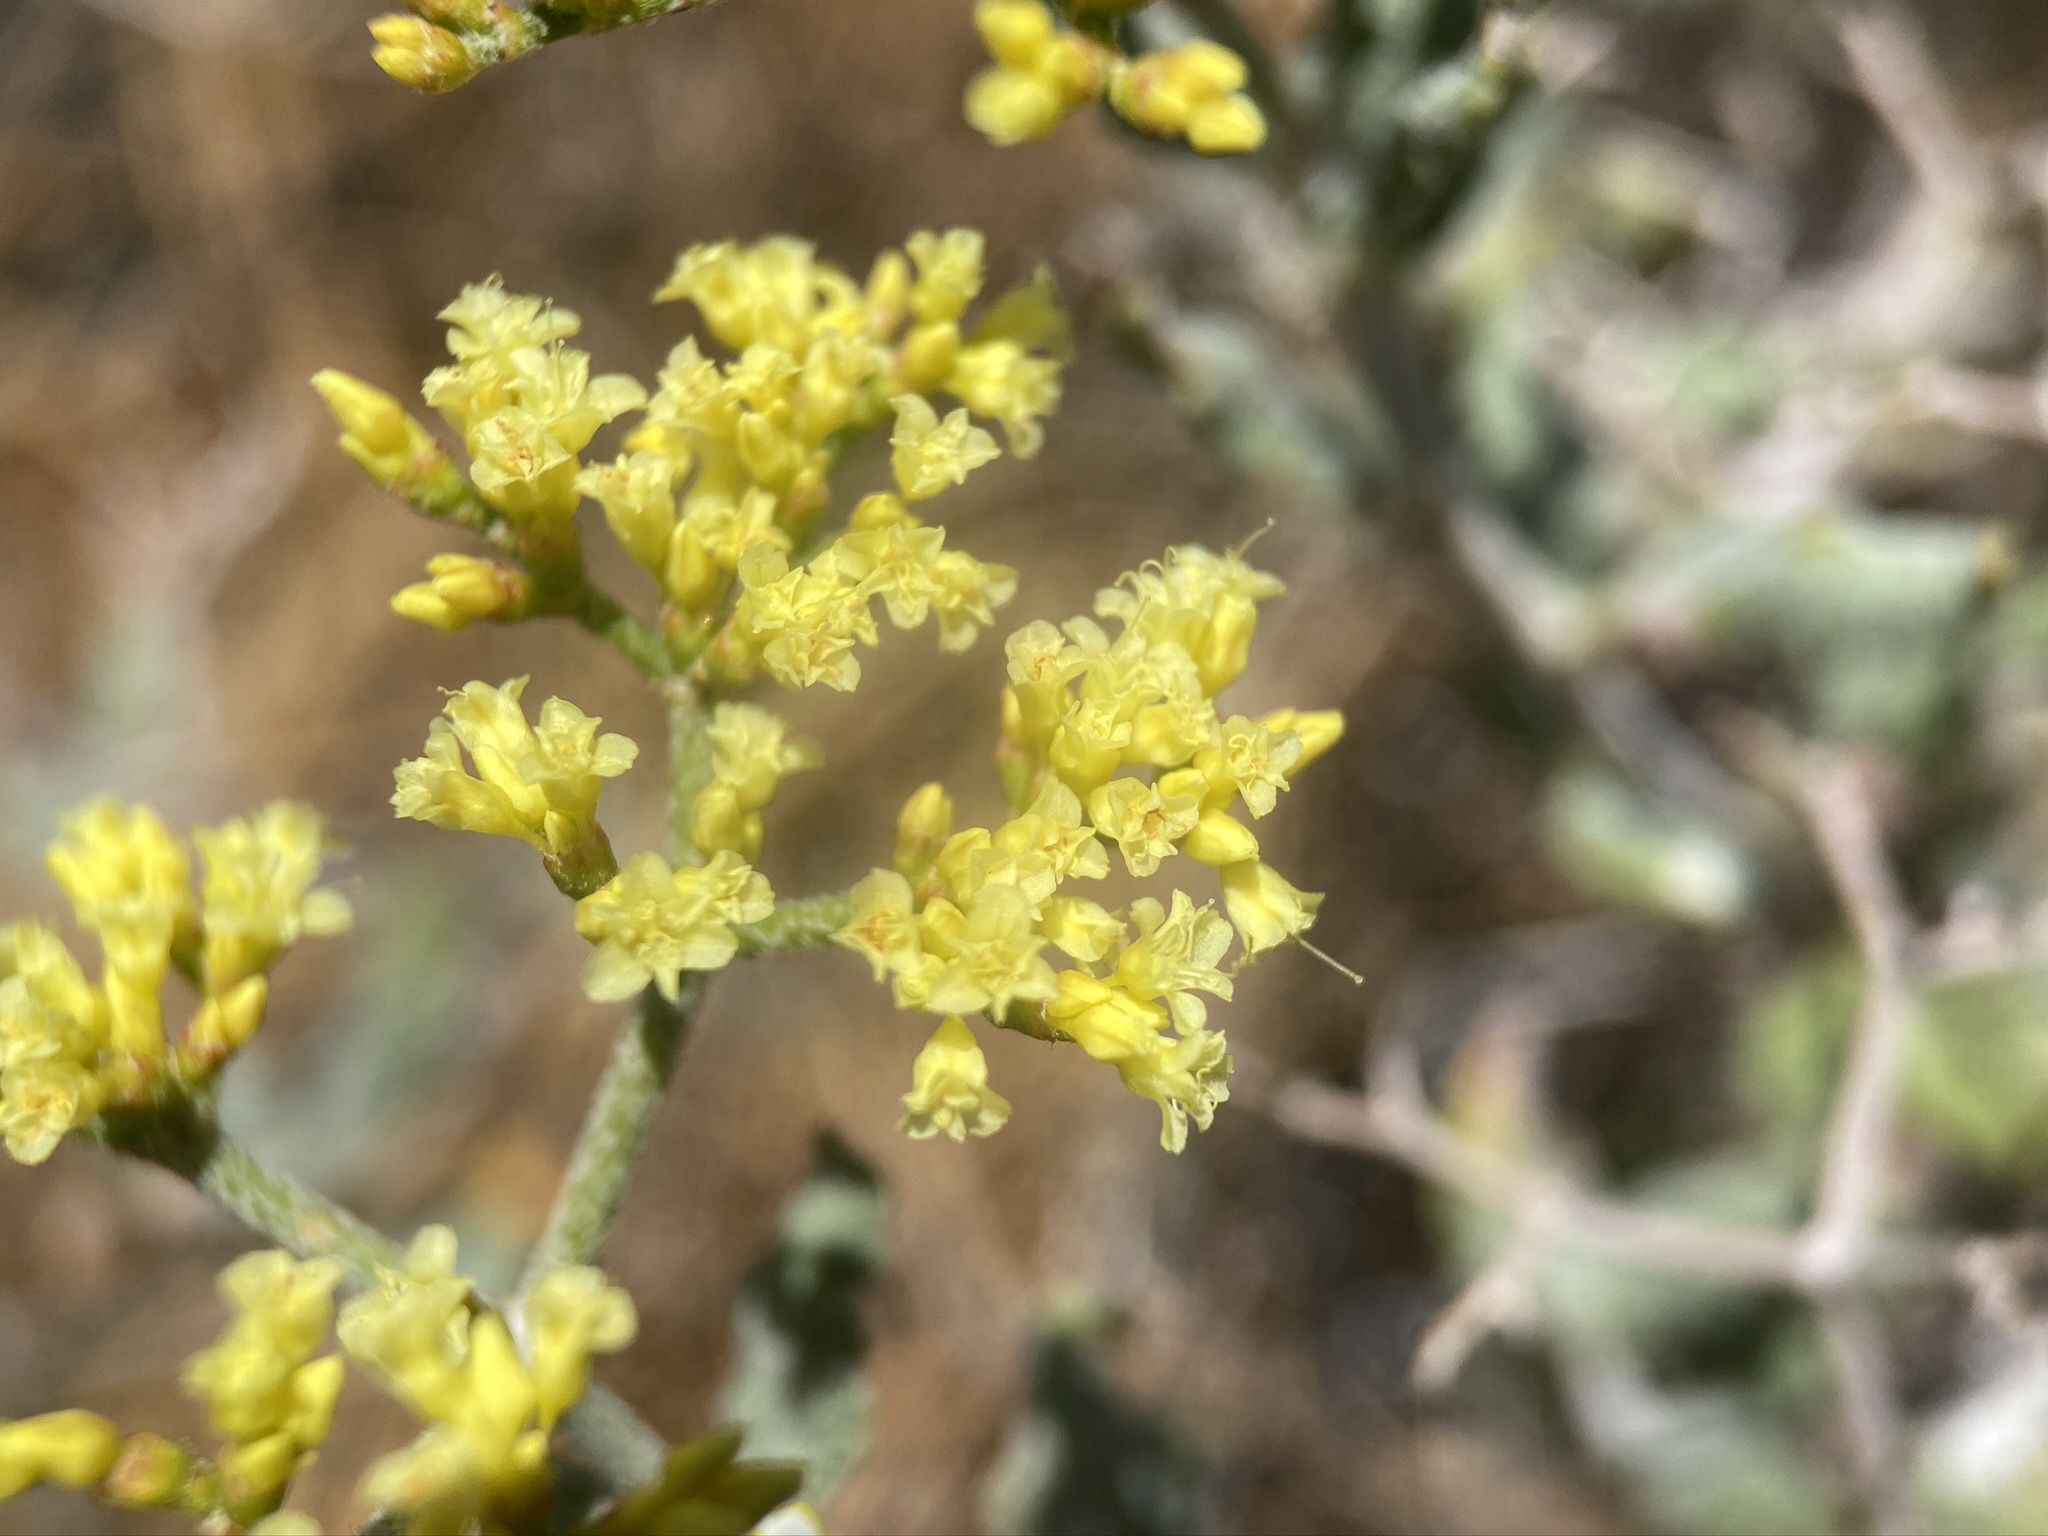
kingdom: Plantae
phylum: Tracheophyta
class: Magnoliopsida
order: Caryophyllales
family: Polygonaceae
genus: Eriogonum
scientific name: Eriogonum corymbosum
